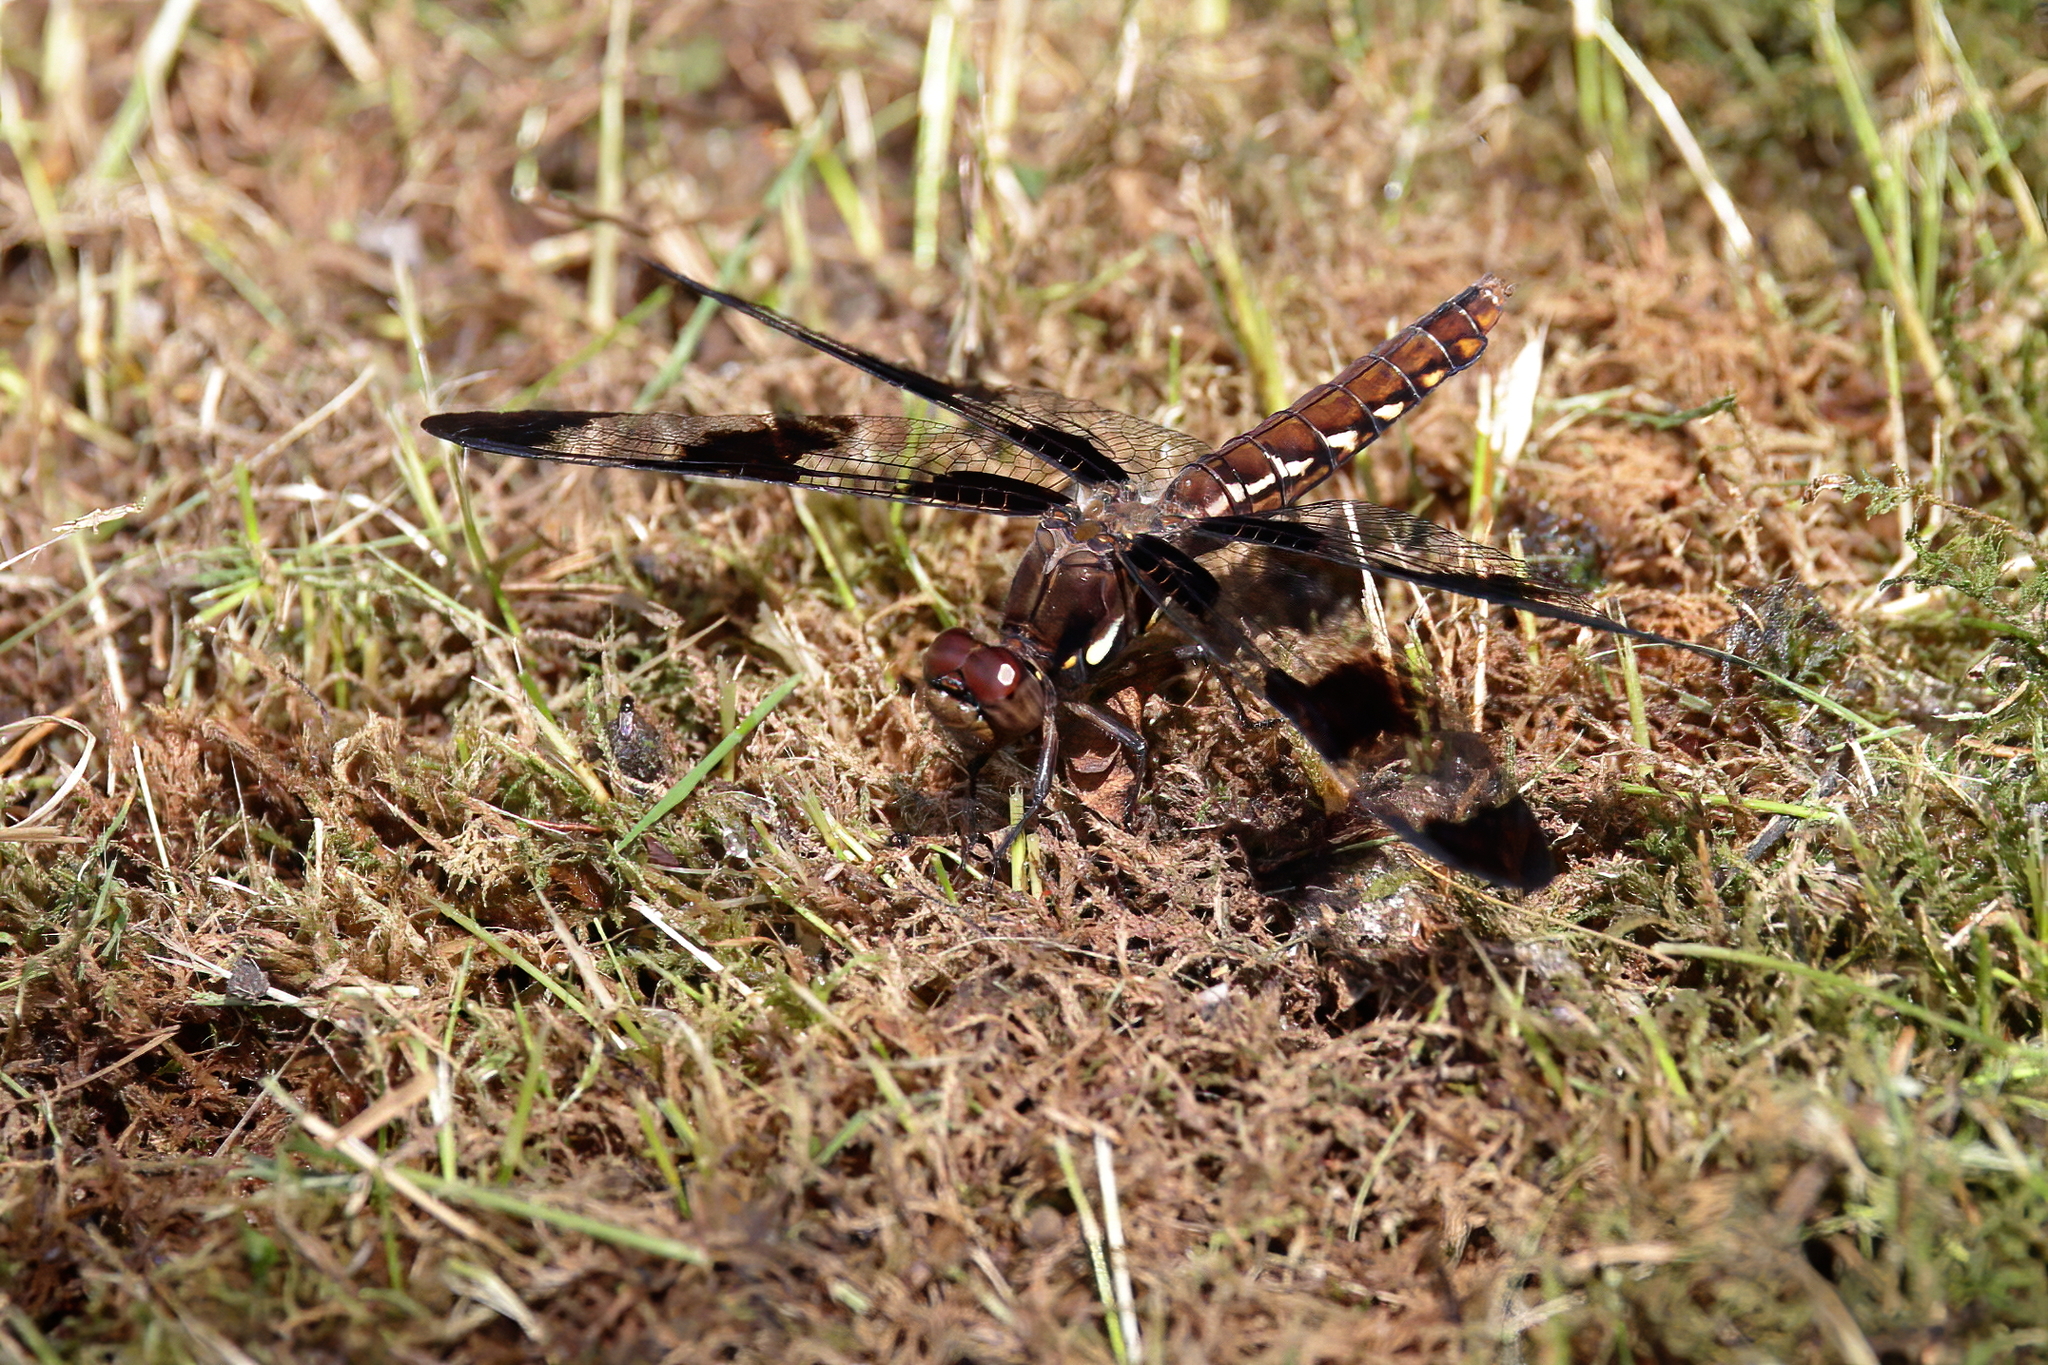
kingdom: Animalia
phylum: Arthropoda
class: Insecta
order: Odonata
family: Libellulidae
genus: Plathemis
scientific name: Plathemis lydia
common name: Common whitetail
